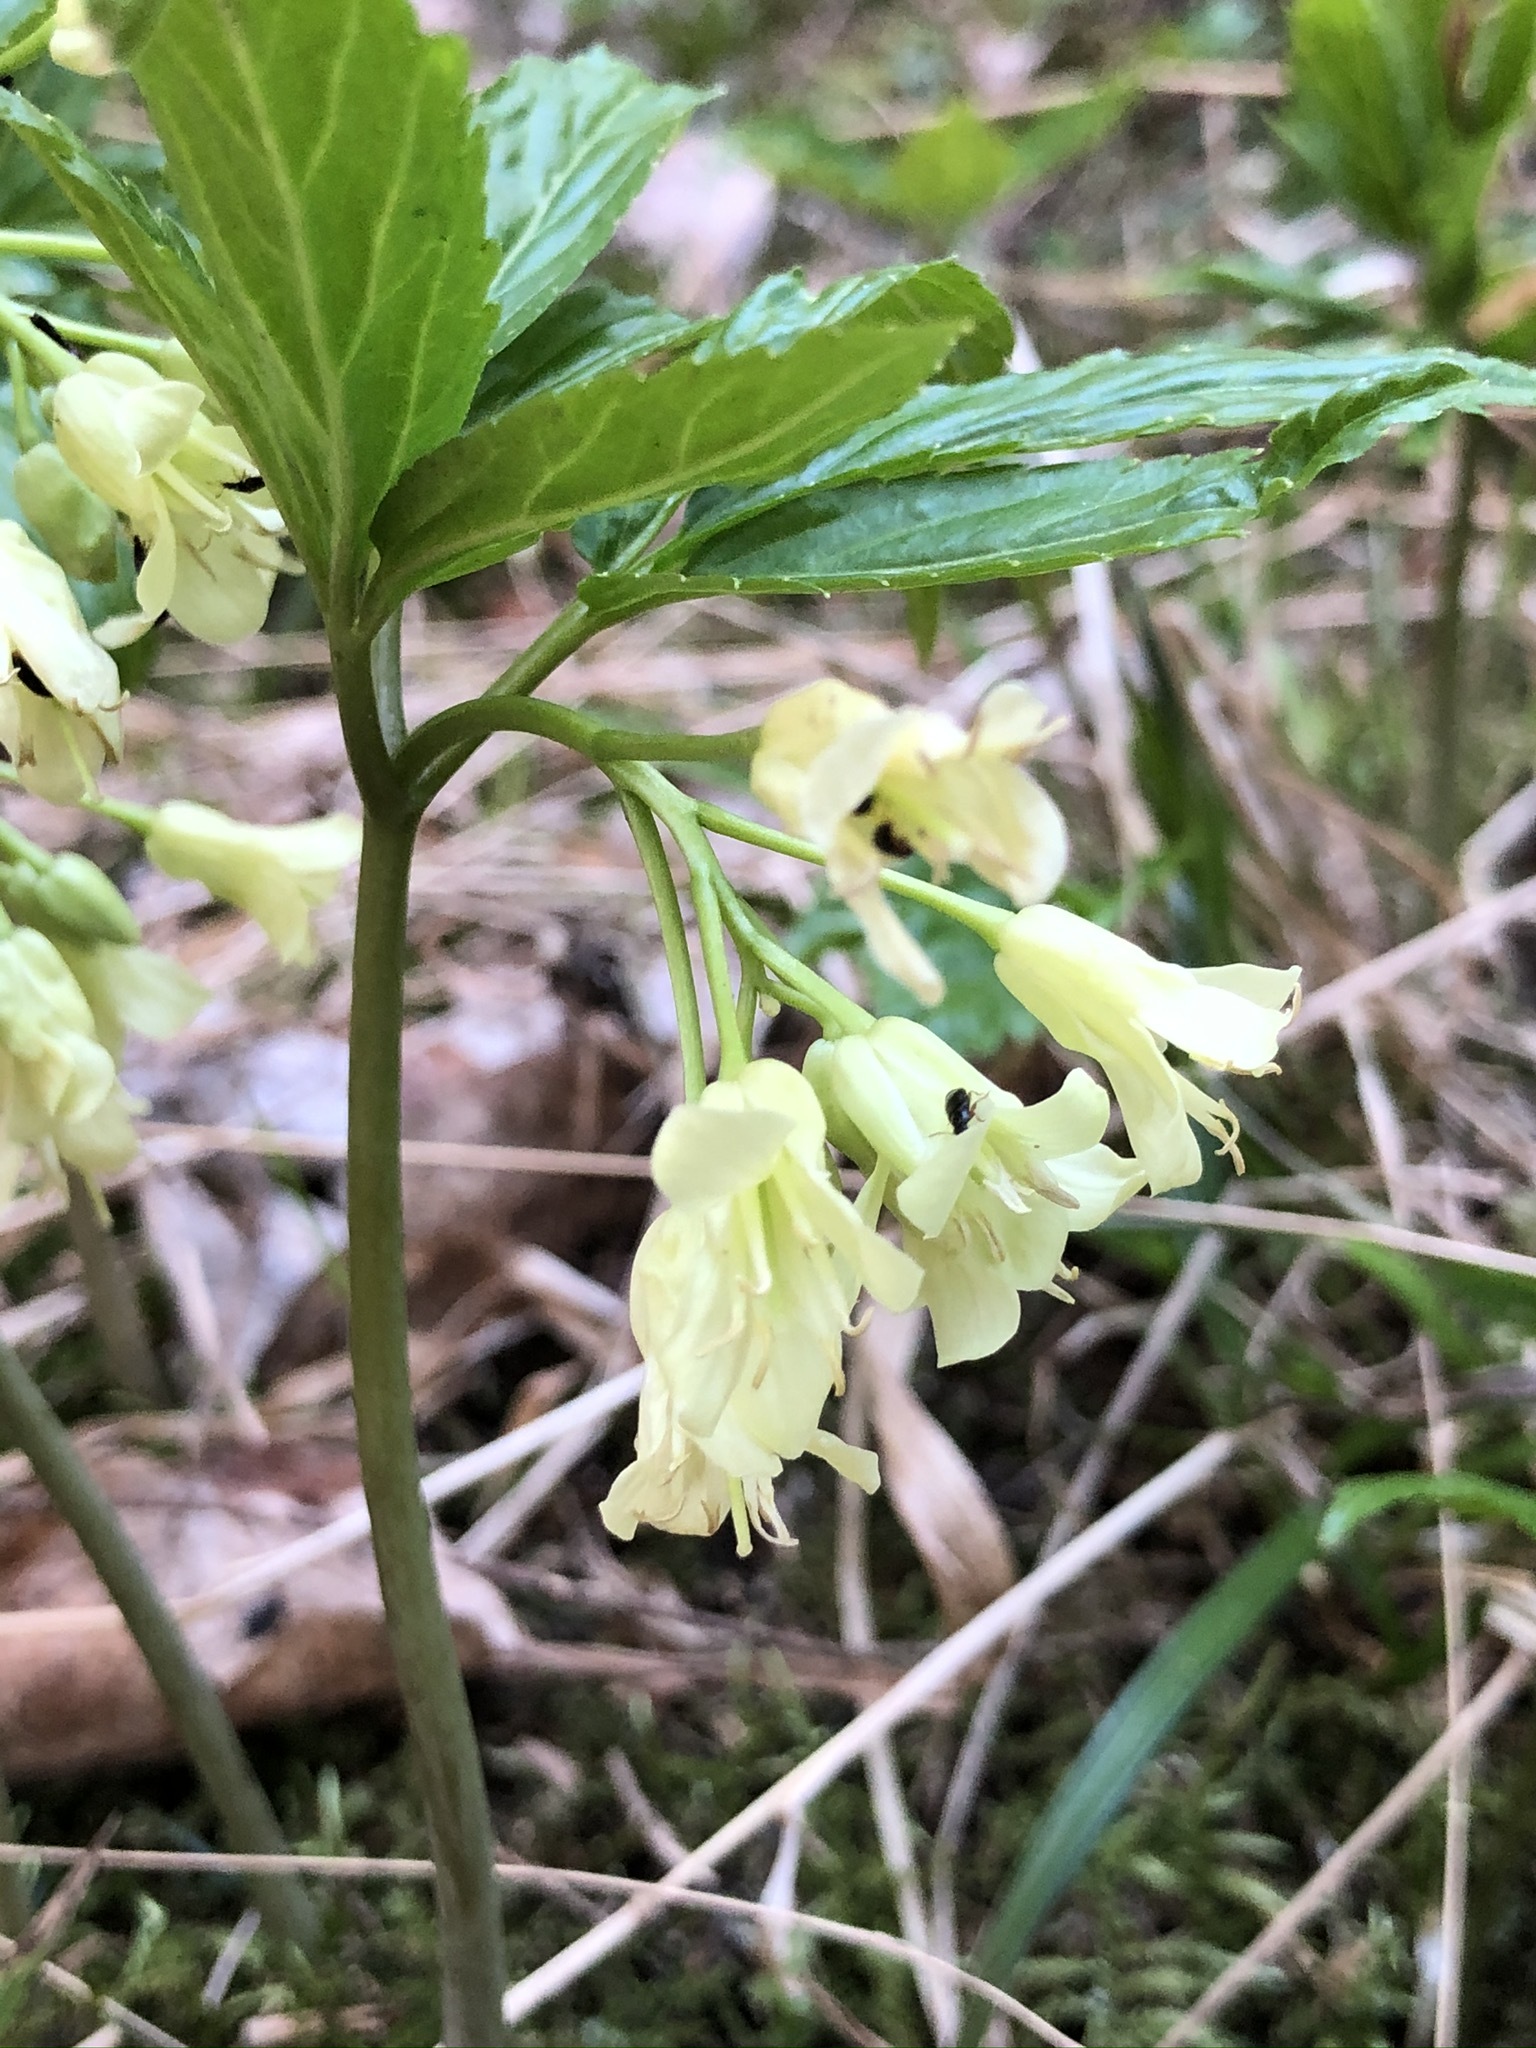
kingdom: Plantae
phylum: Tracheophyta
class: Magnoliopsida
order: Brassicales
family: Brassicaceae
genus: Cardamine
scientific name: Cardamine enneaphyllos
